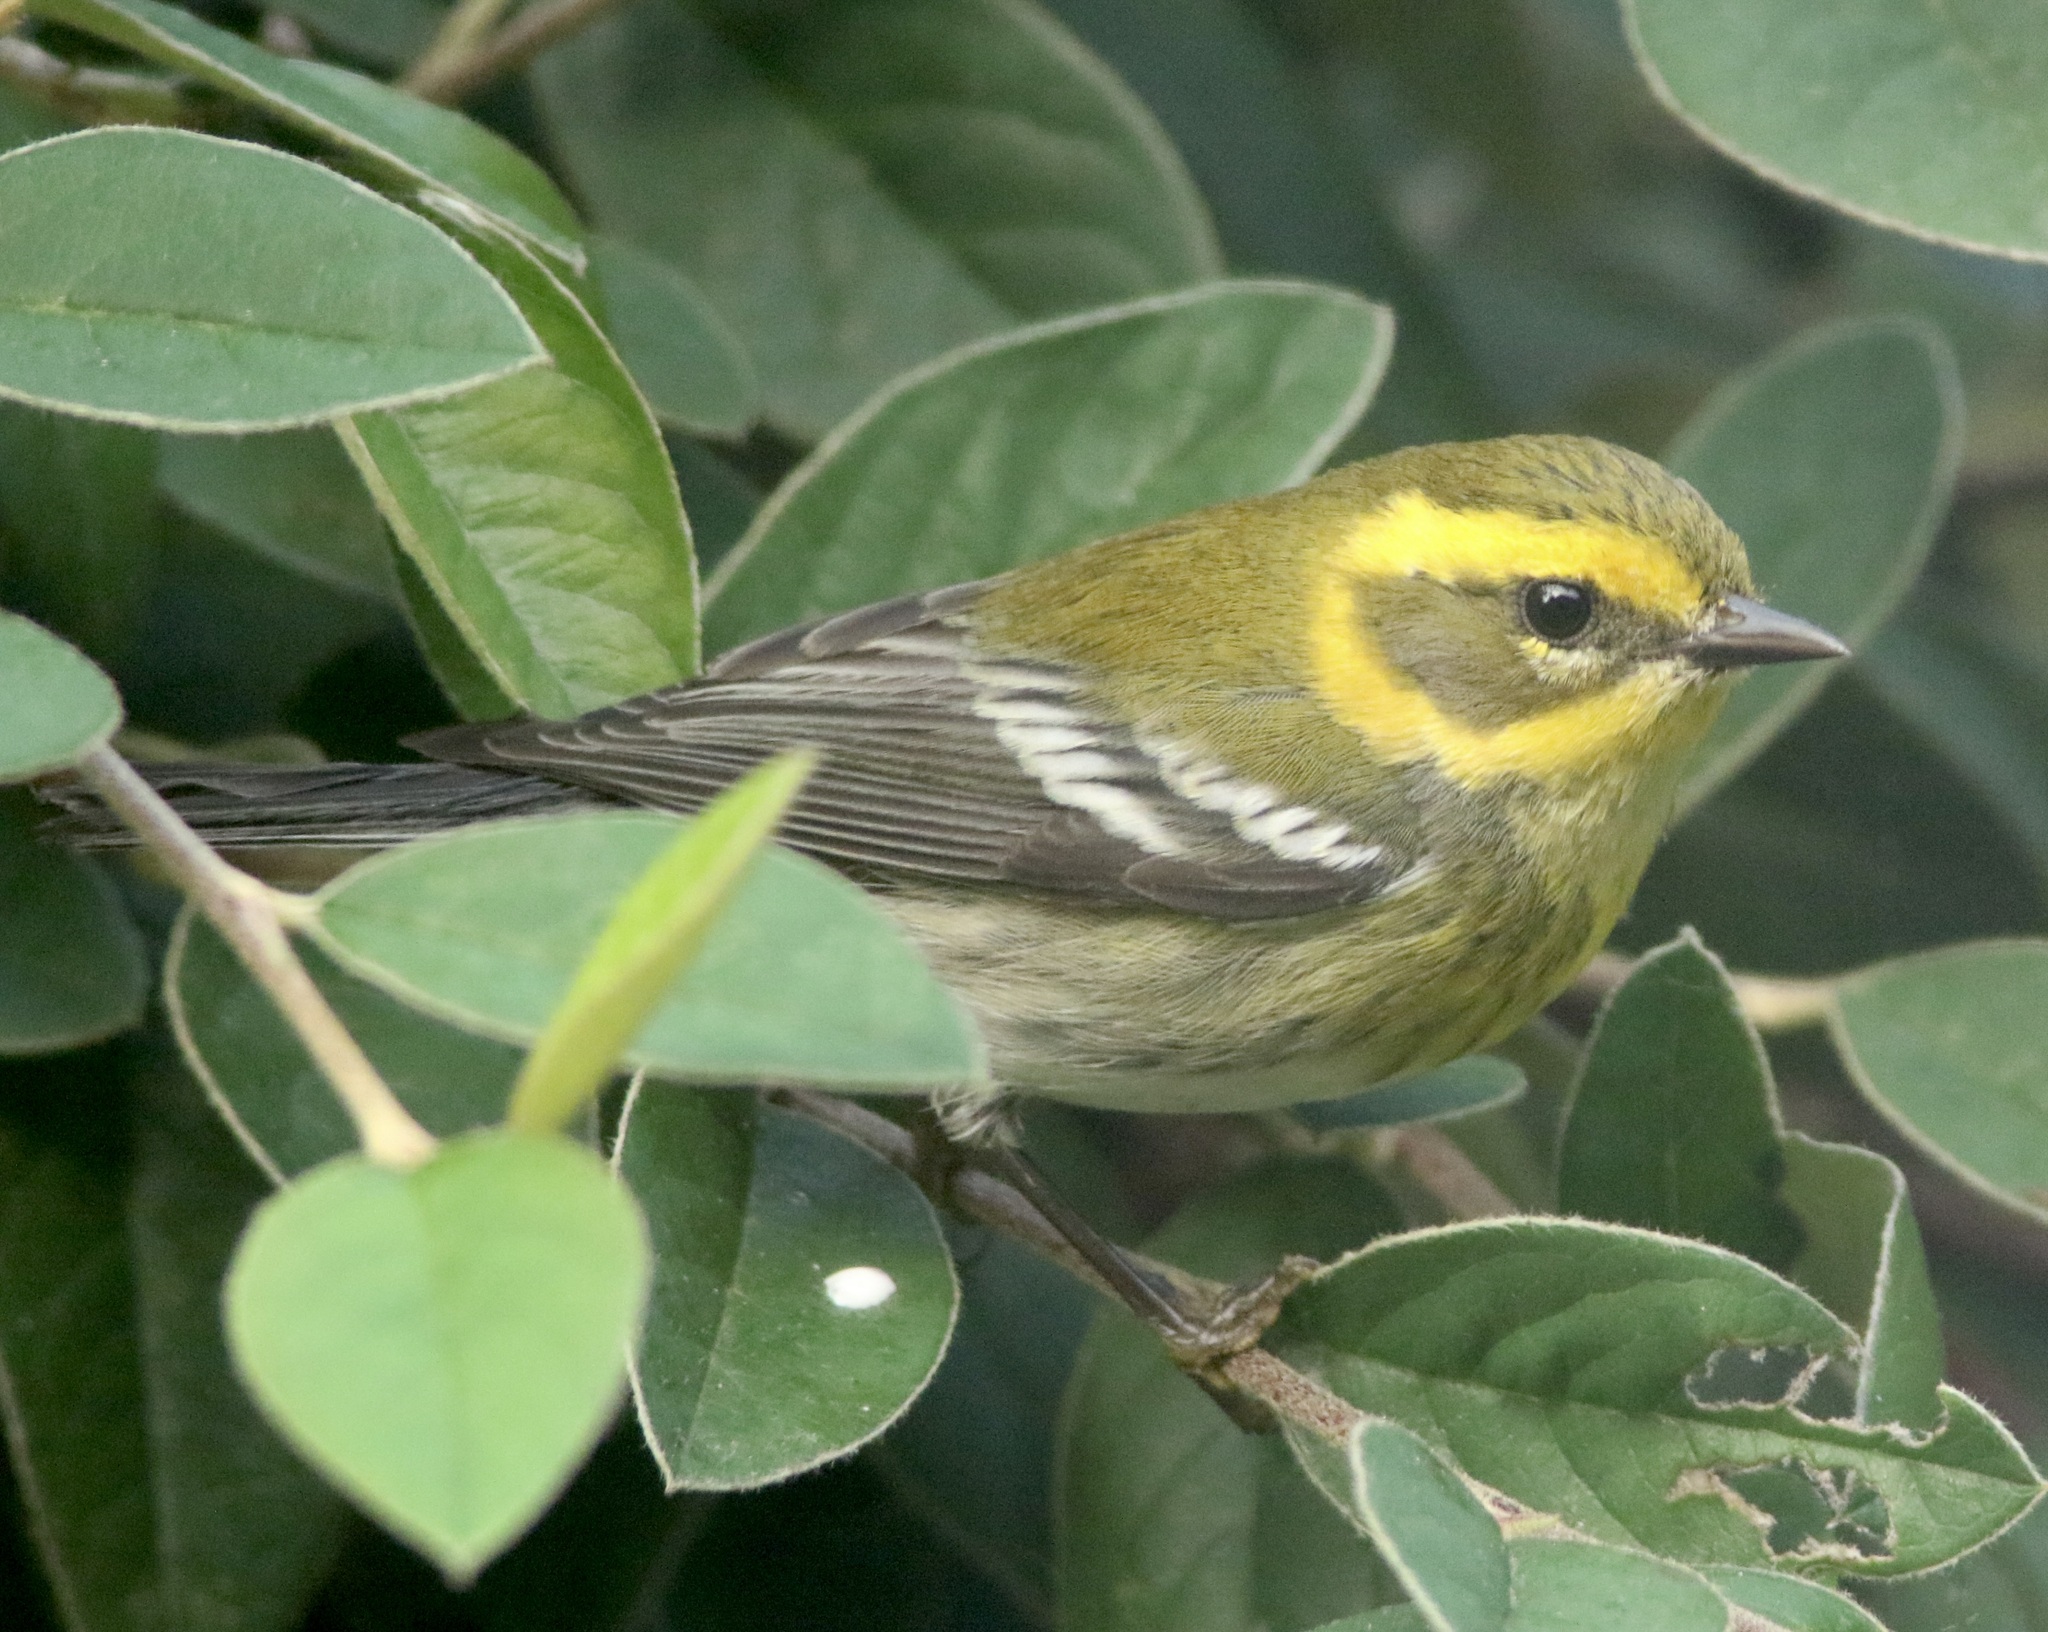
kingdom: Animalia
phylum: Chordata
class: Aves
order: Passeriformes
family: Parulidae
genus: Setophaga
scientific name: Setophaga townsendi
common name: Townsend's warbler
